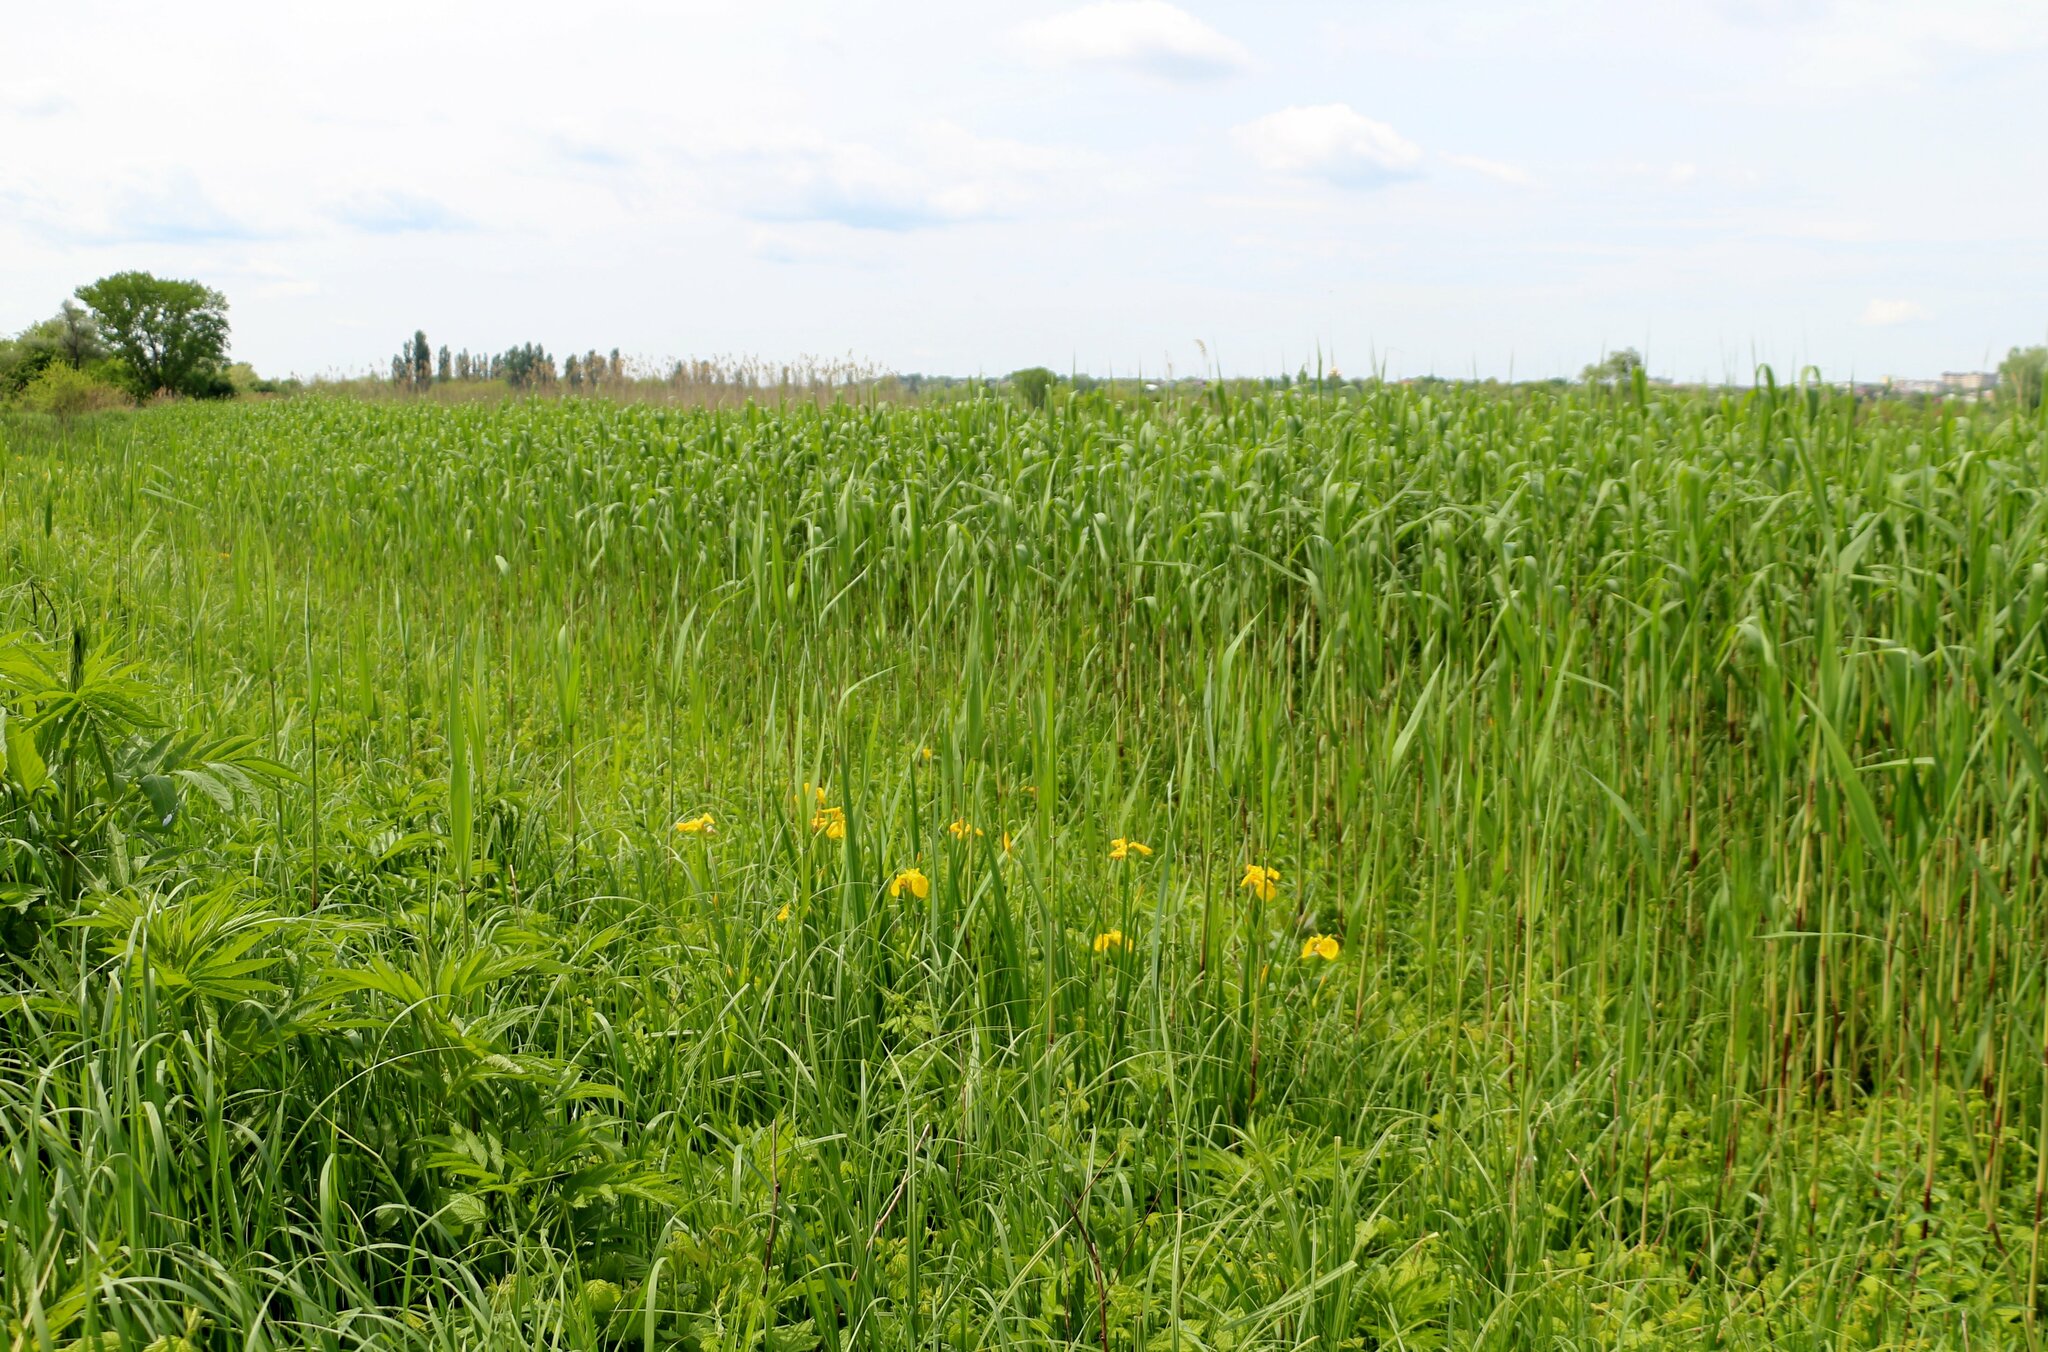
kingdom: Plantae
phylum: Tracheophyta
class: Liliopsida
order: Asparagales
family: Iridaceae
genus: Iris
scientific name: Iris pseudacorus
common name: Yellow flag
